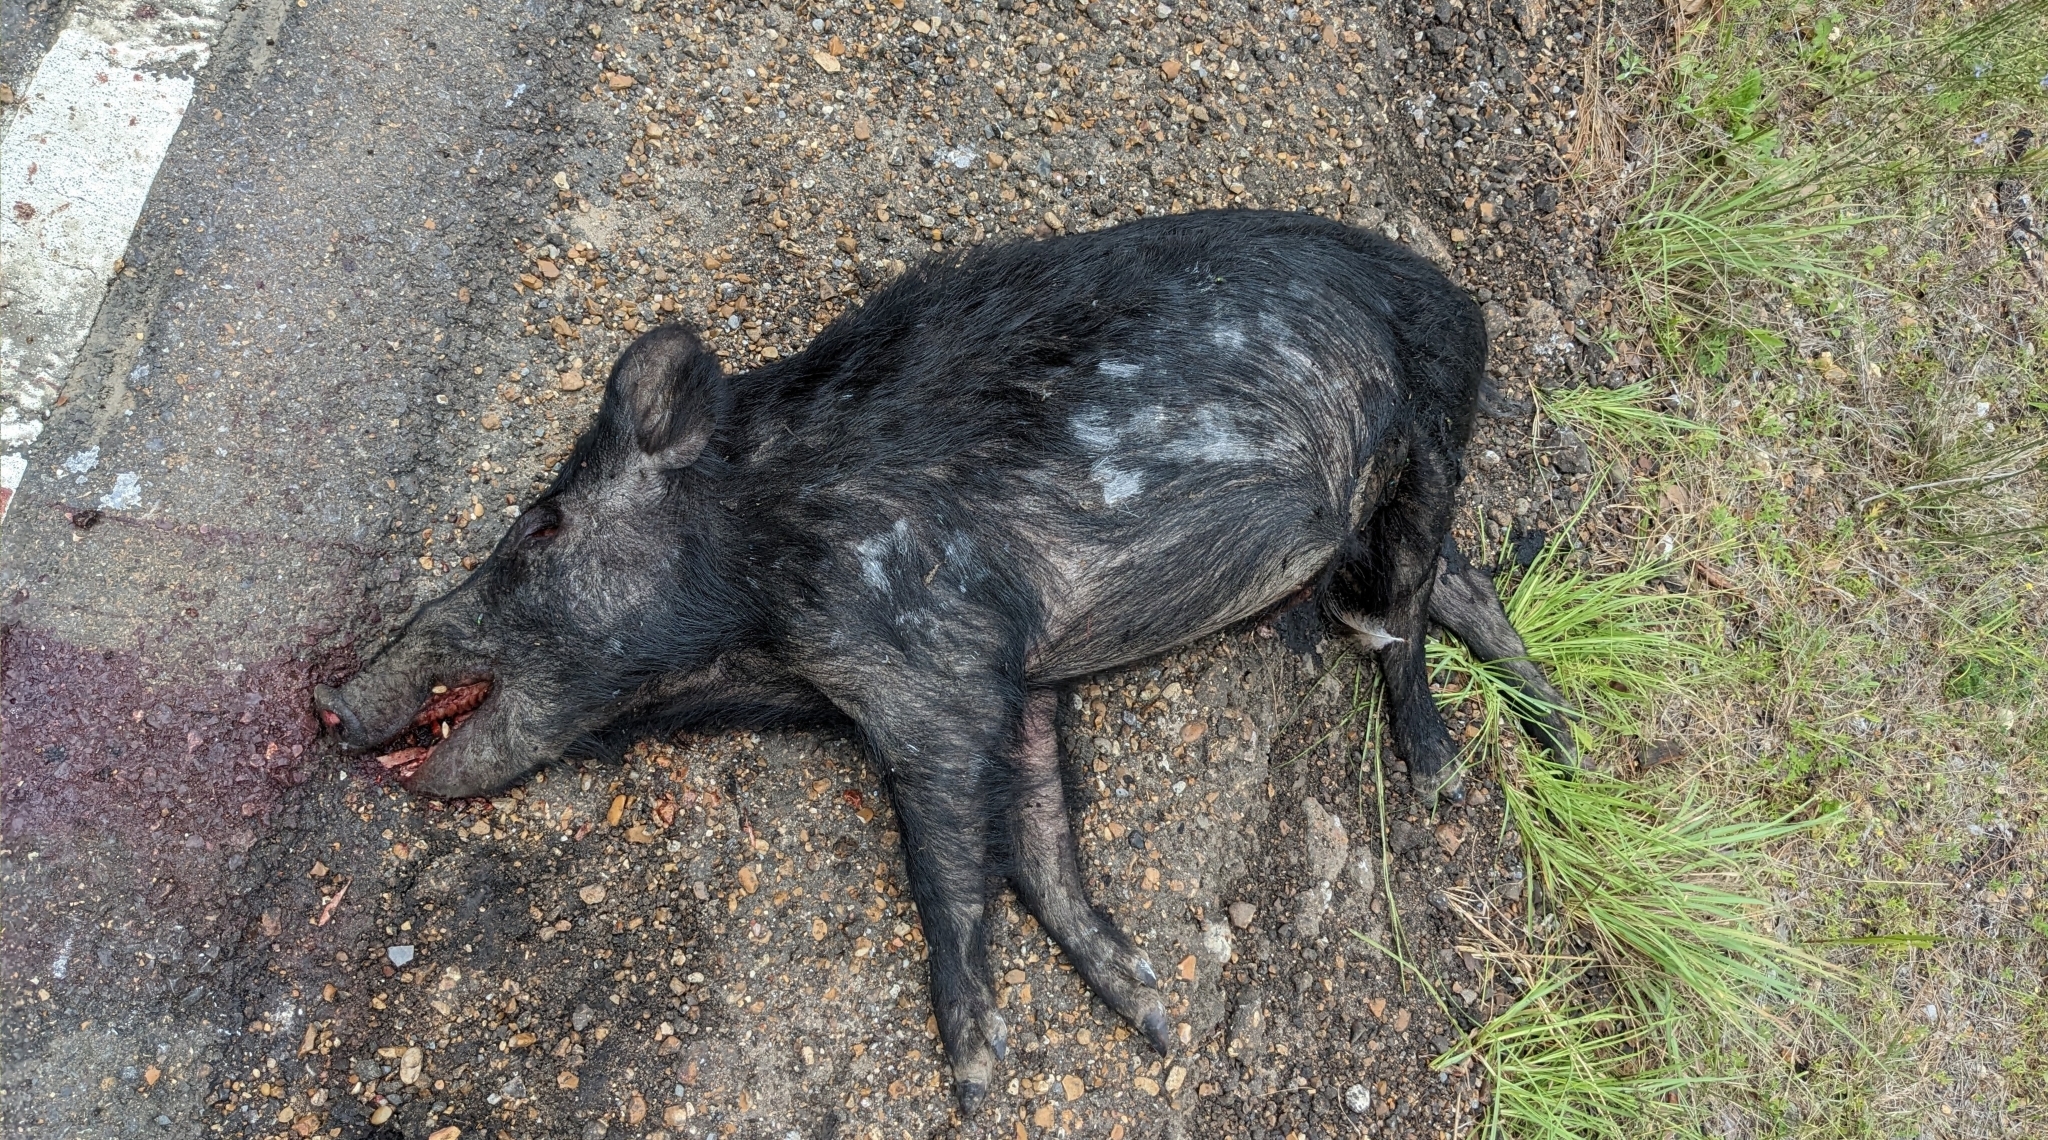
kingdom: Animalia
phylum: Chordata
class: Mammalia
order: Artiodactyla
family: Suidae
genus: Sus
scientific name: Sus scrofa
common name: Wild boar
